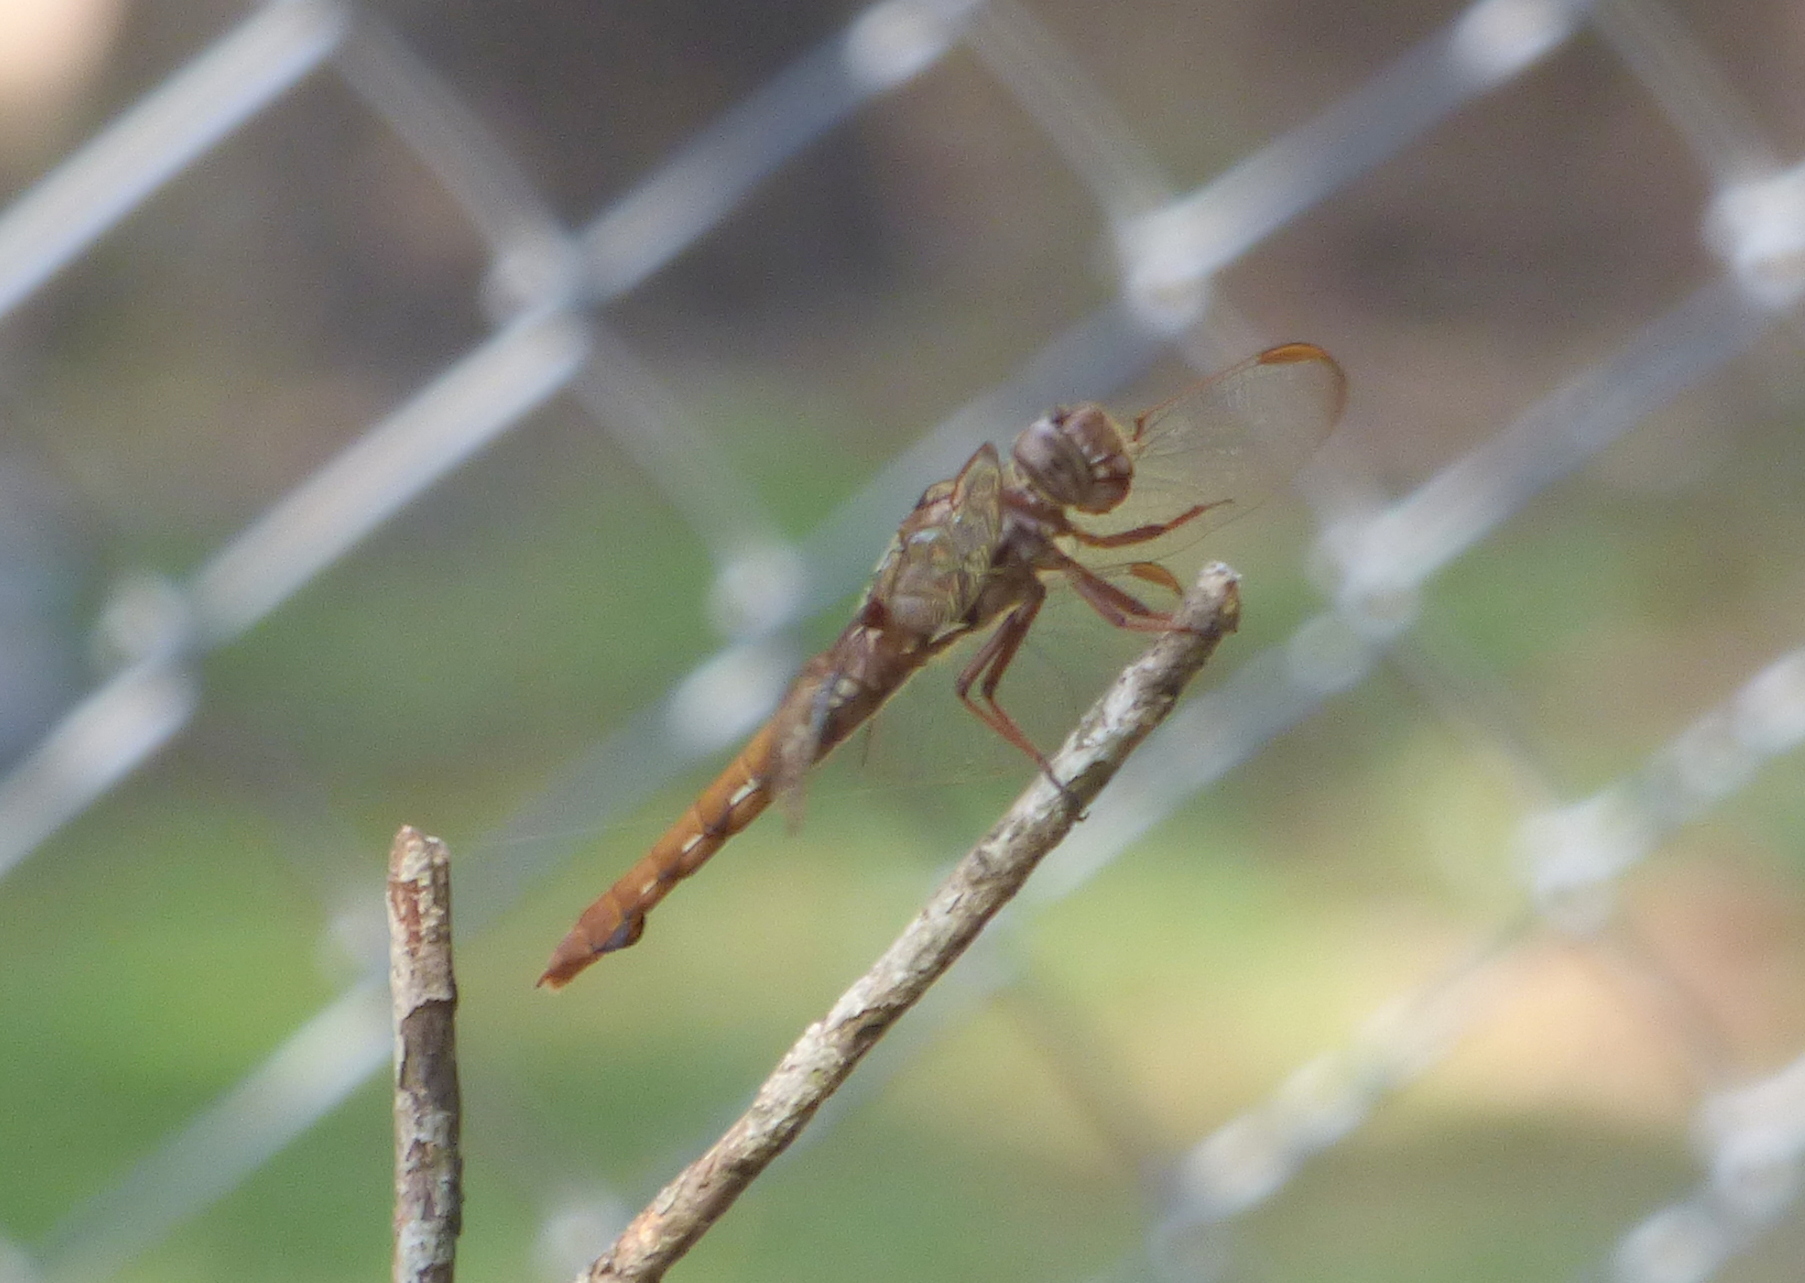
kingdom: Animalia
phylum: Arthropoda
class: Insecta
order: Odonata
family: Libellulidae
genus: Orthemis
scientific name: Orthemis nodiplaga
